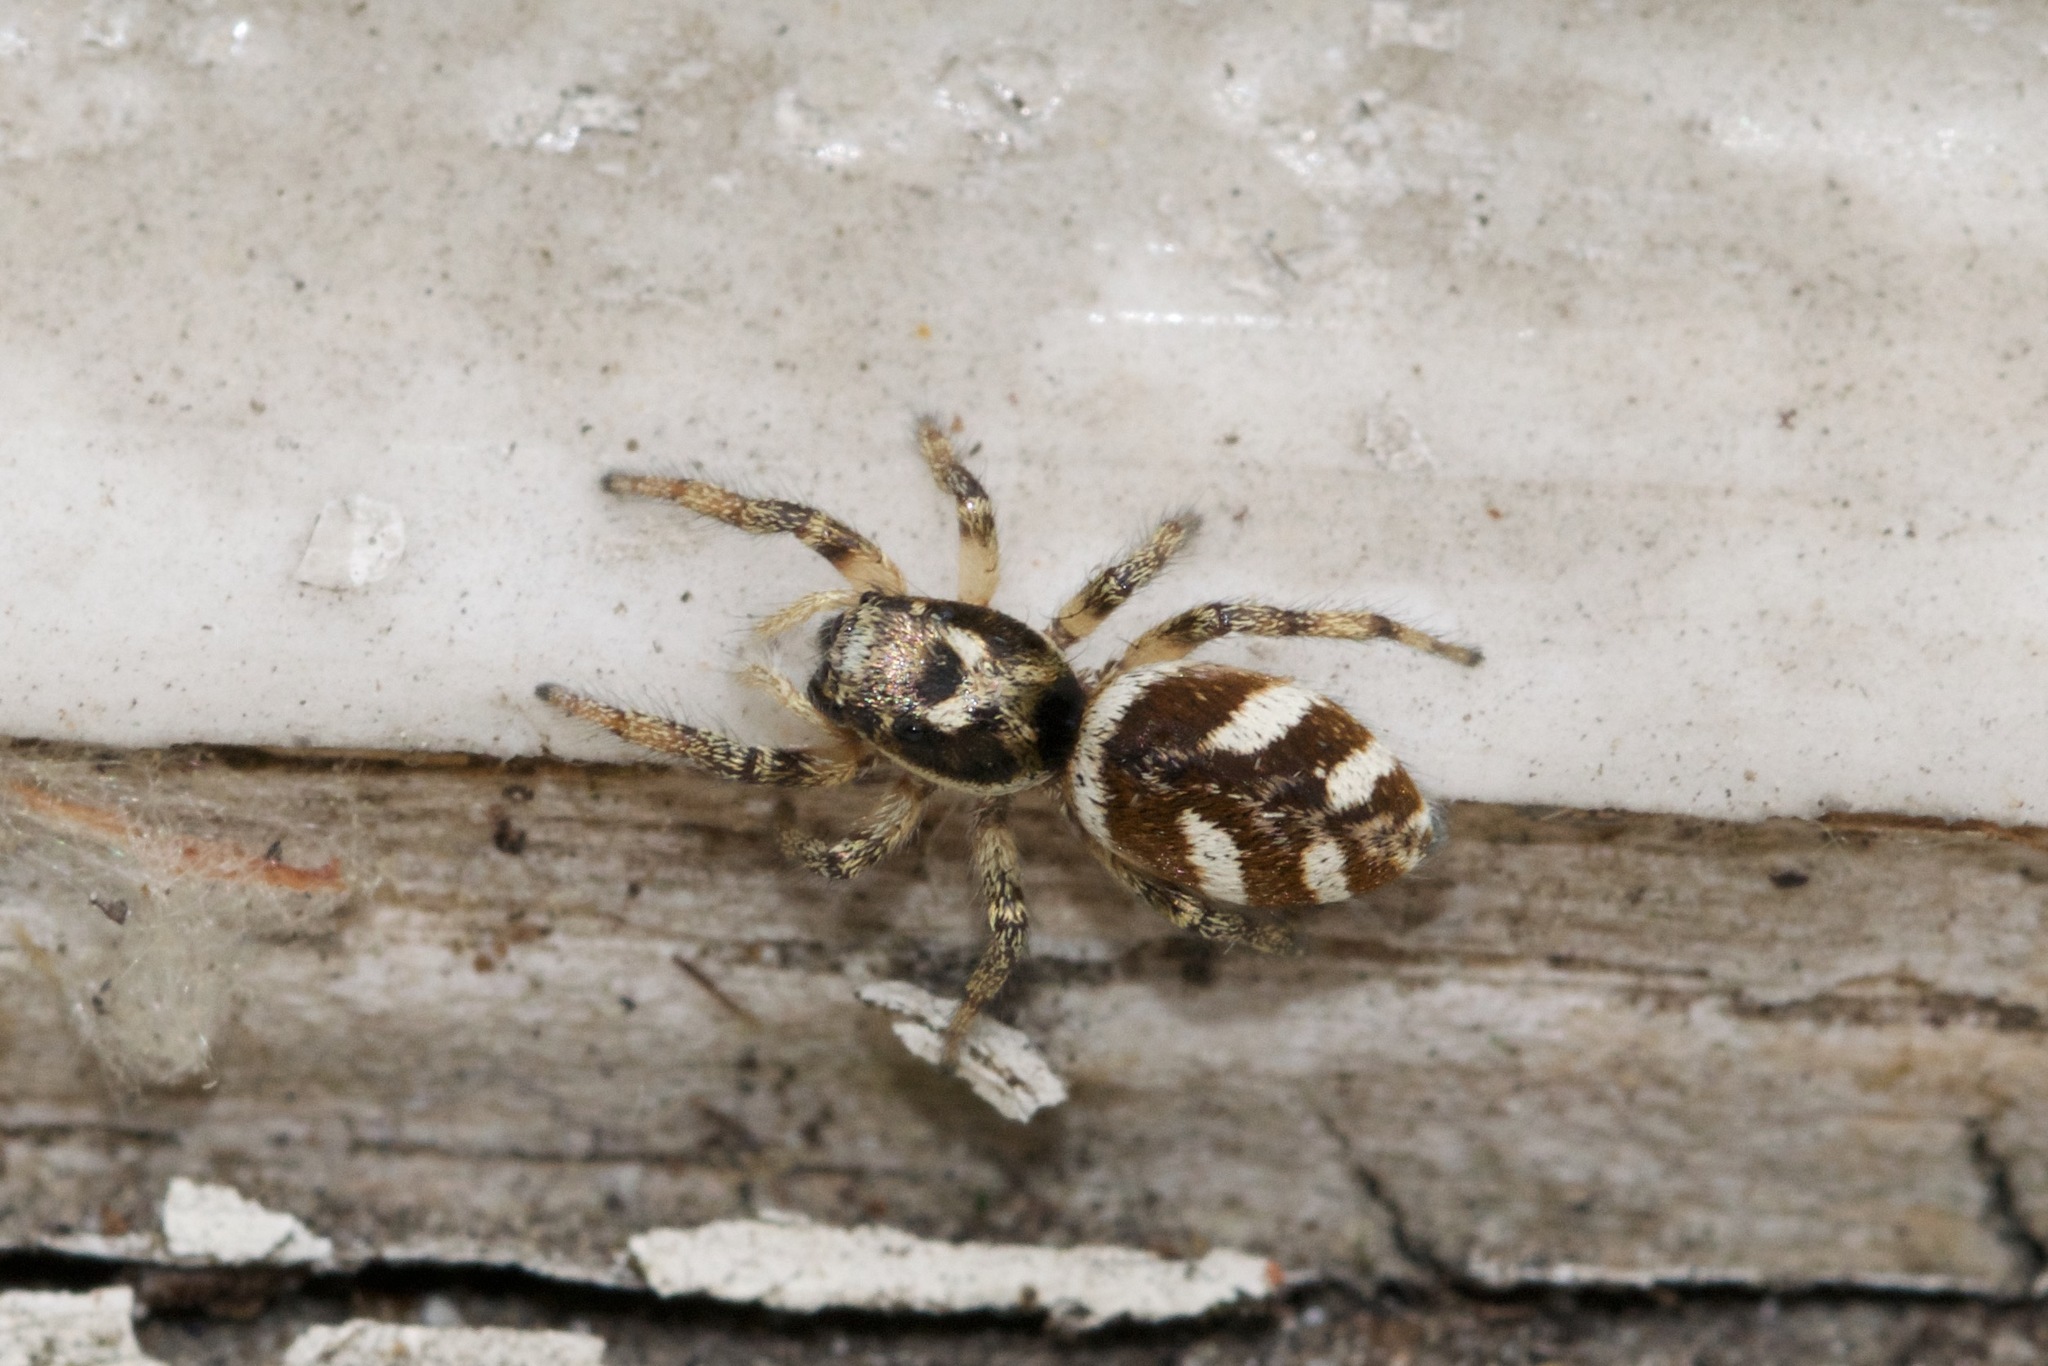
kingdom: Animalia
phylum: Arthropoda
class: Arachnida
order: Araneae
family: Salticidae
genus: Salticus
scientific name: Salticus scenicus
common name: Zebra jumper
